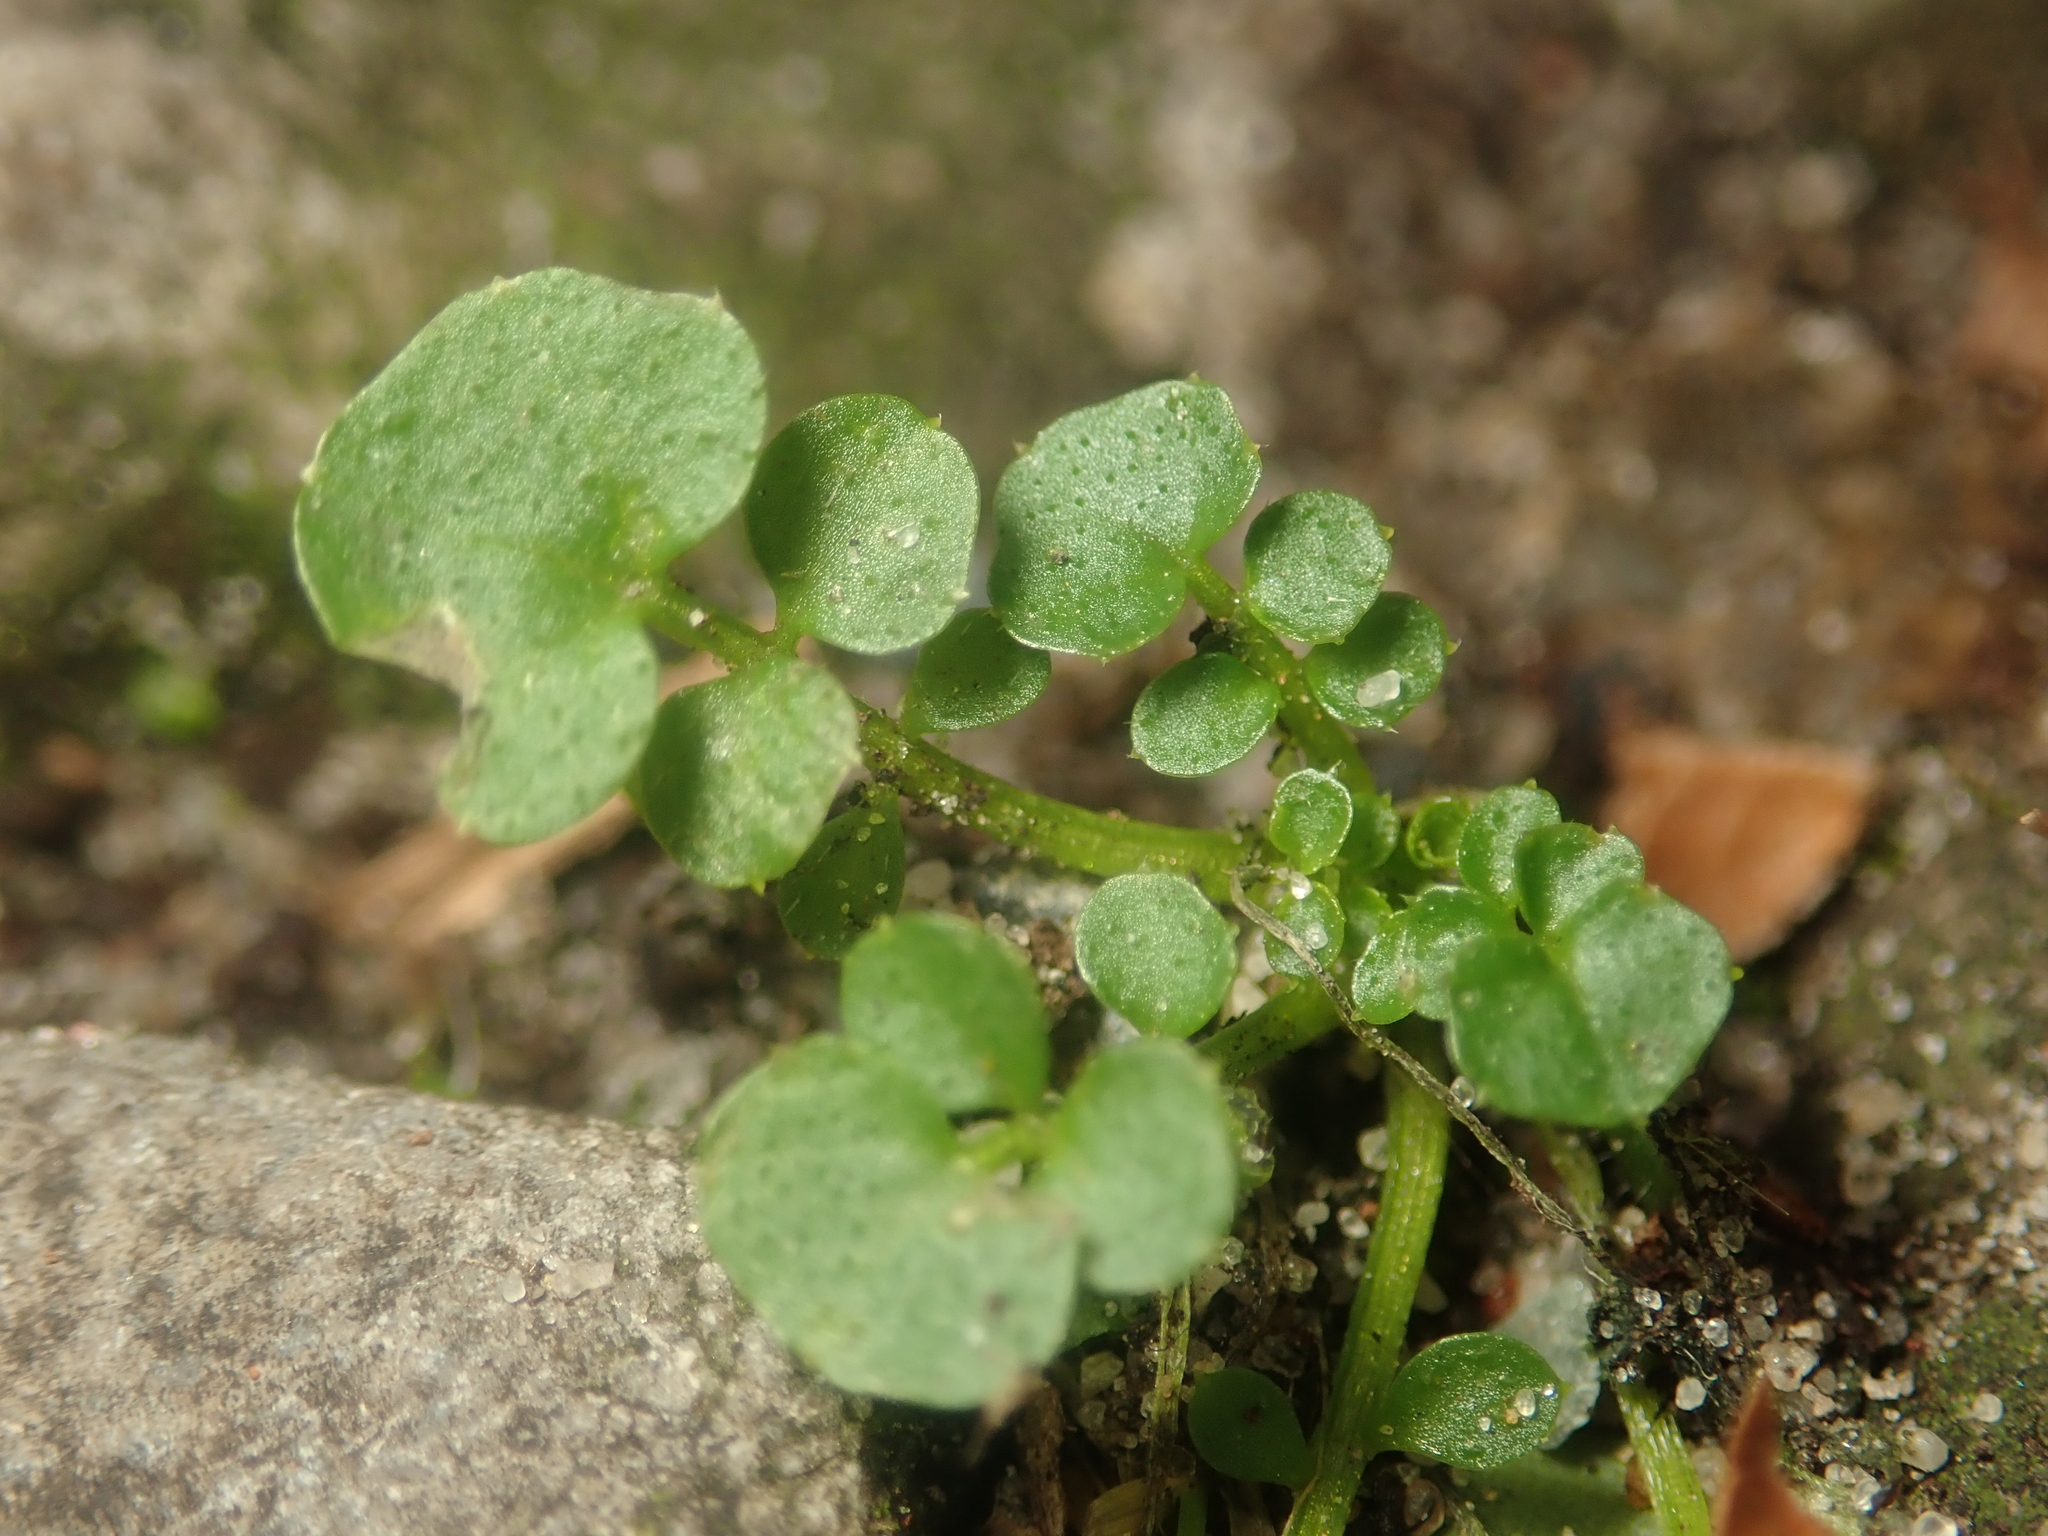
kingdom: Plantae
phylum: Tracheophyta
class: Magnoliopsida
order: Brassicales
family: Brassicaceae
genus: Cardamine
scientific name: Cardamine hirsuta
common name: Hairy bittercress
